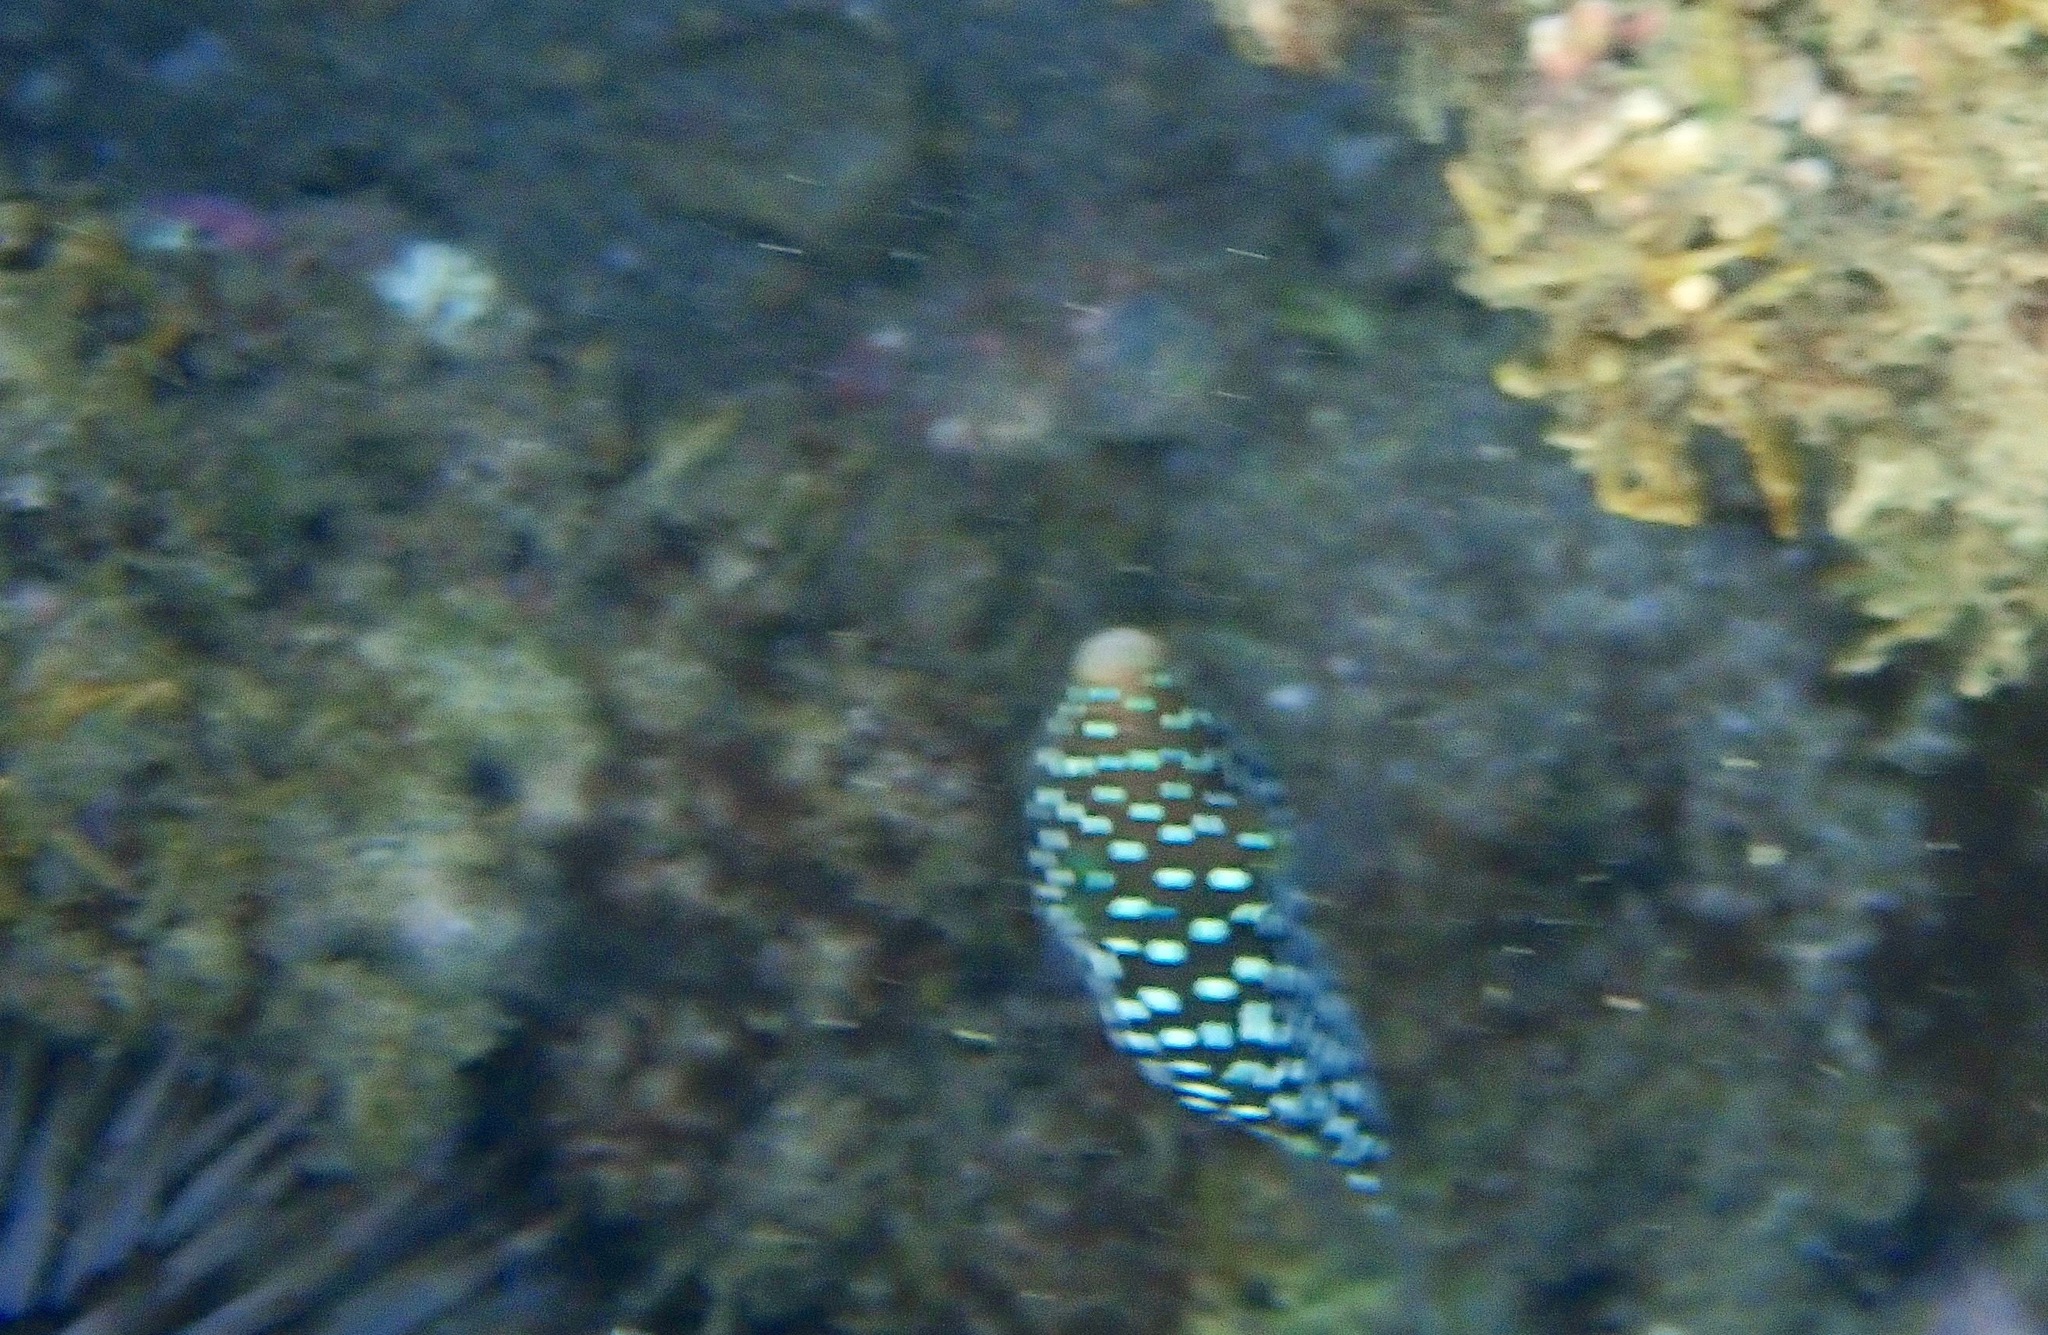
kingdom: Animalia
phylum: Chordata
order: Tetraodontiformes
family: Tetraodontidae
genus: Canthigaster
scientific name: Canthigaster jactator
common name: Hawaiian whitespotted toby
